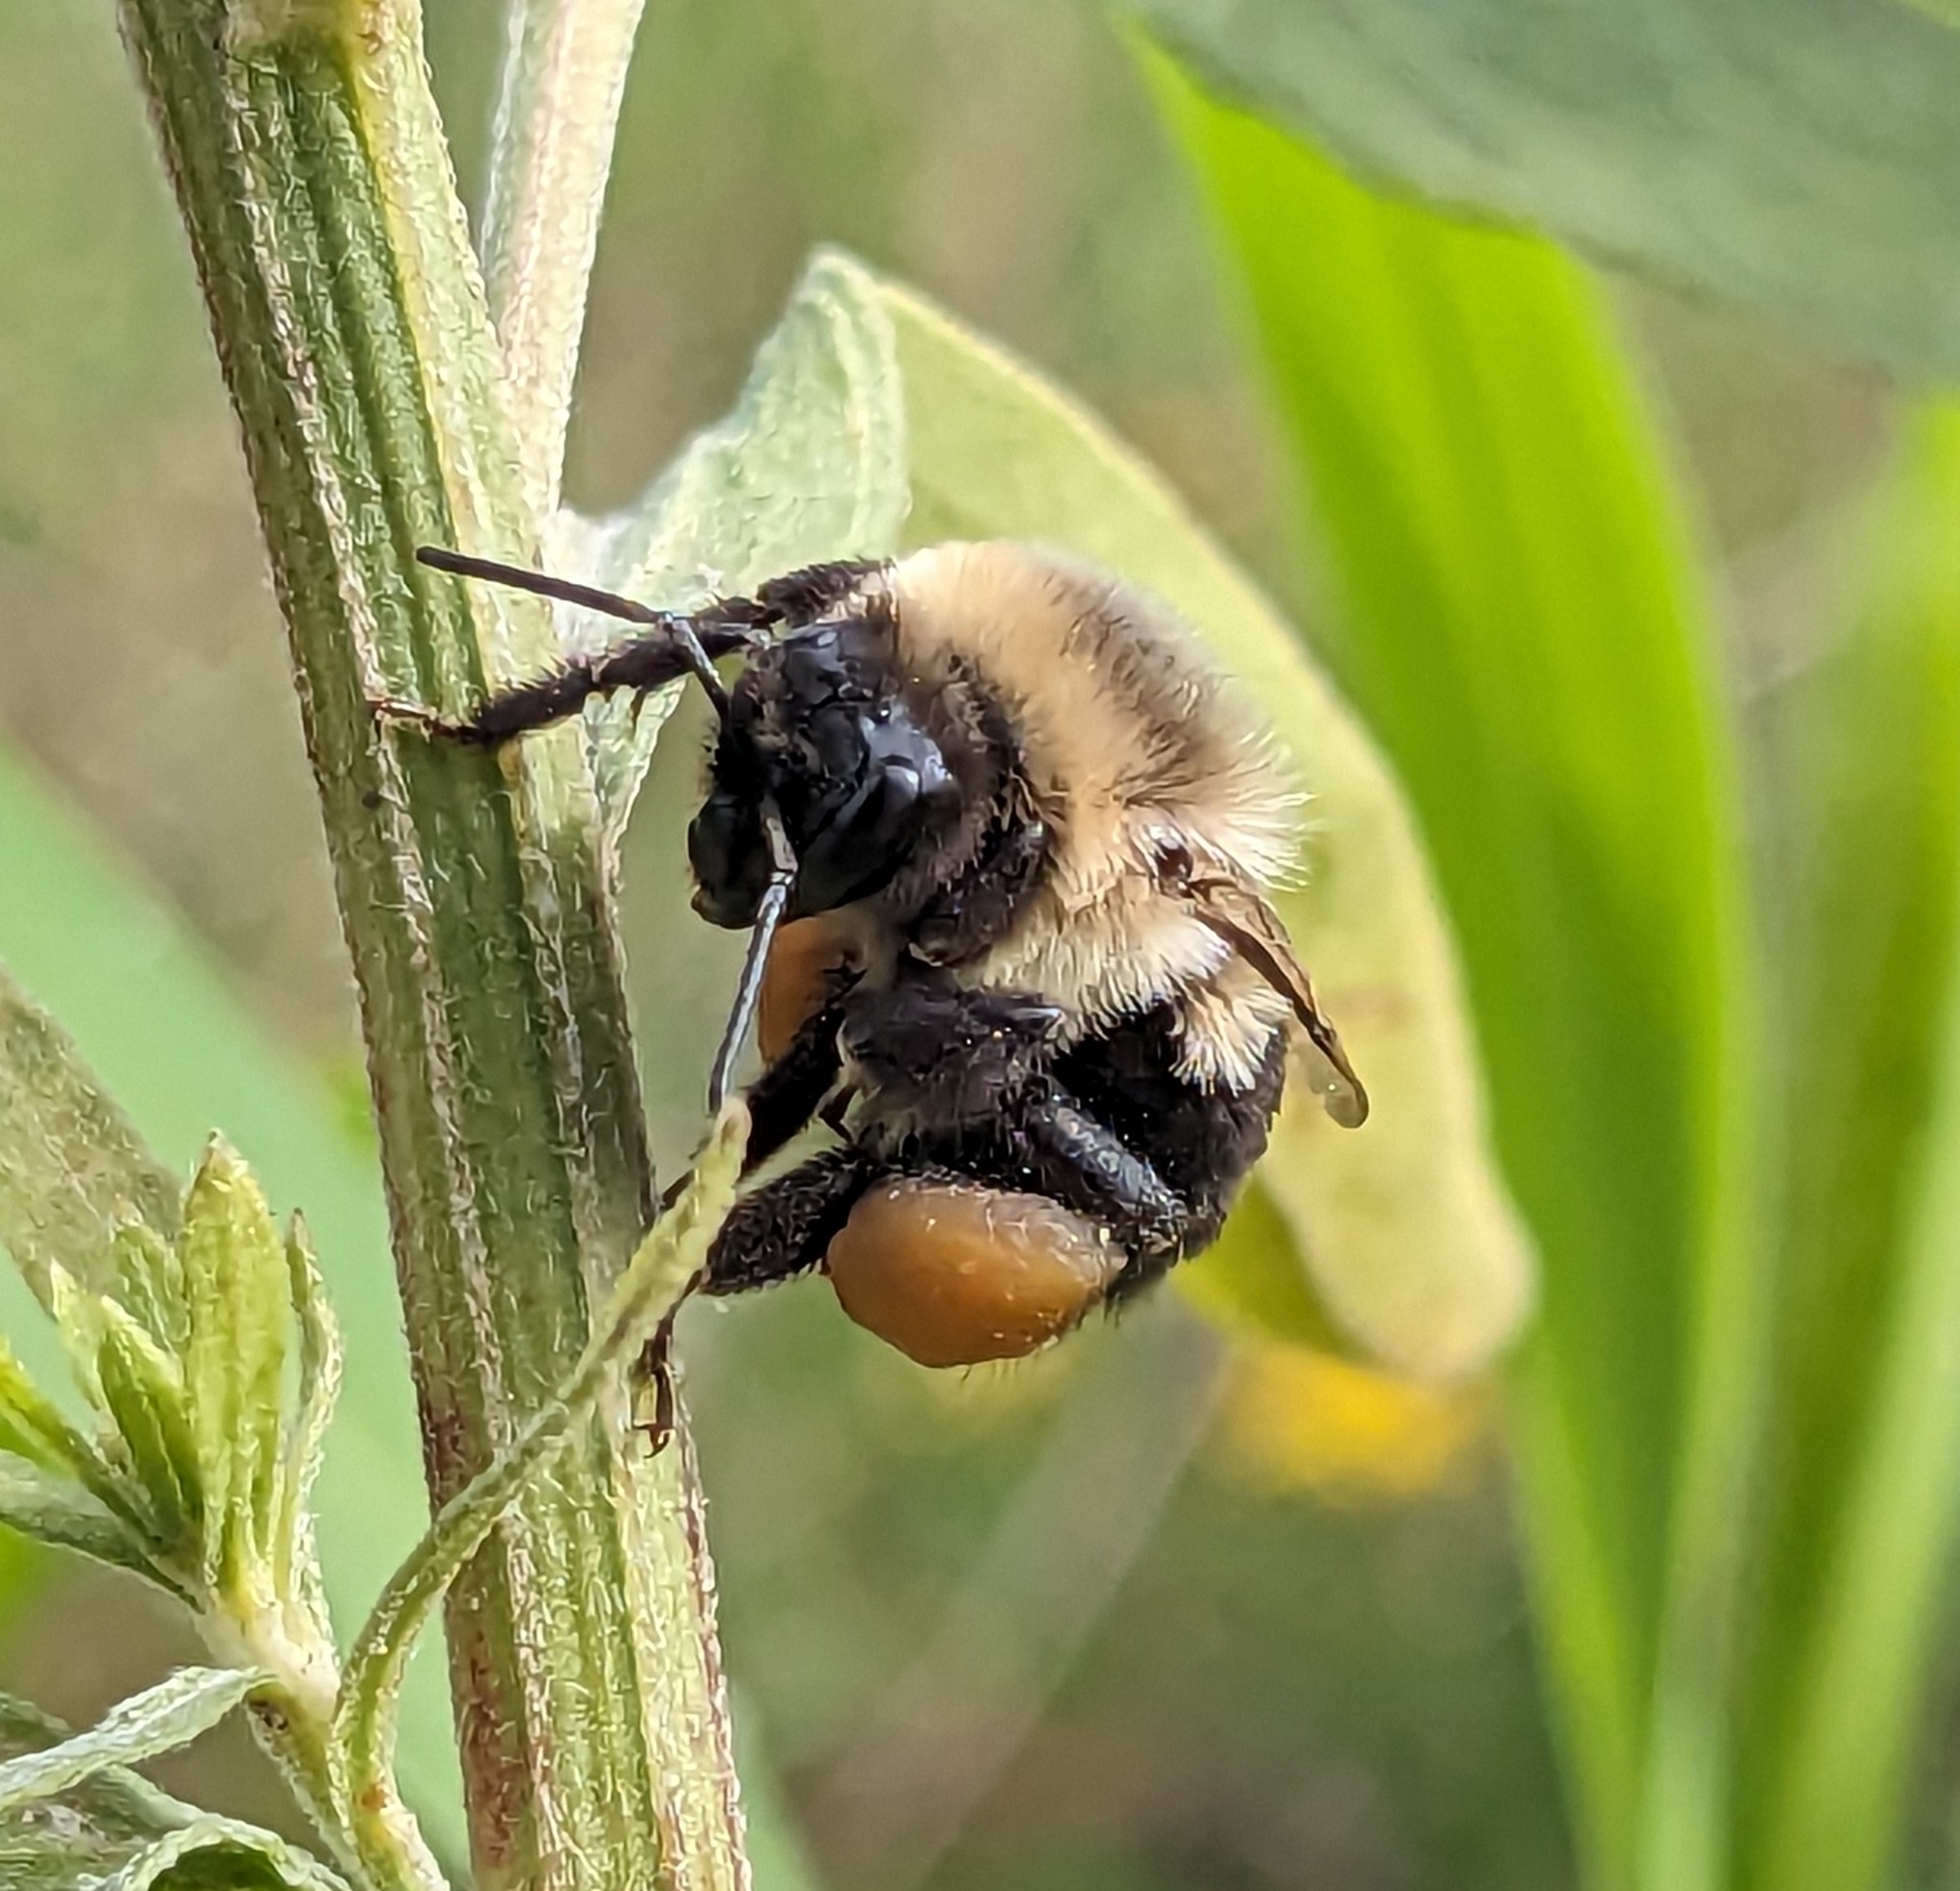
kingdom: Animalia
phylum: Arthropoda
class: Insecta
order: Hymenoptera
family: Apidae
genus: Bombus
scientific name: Bombus impatiens
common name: Common eastern bumble bee
